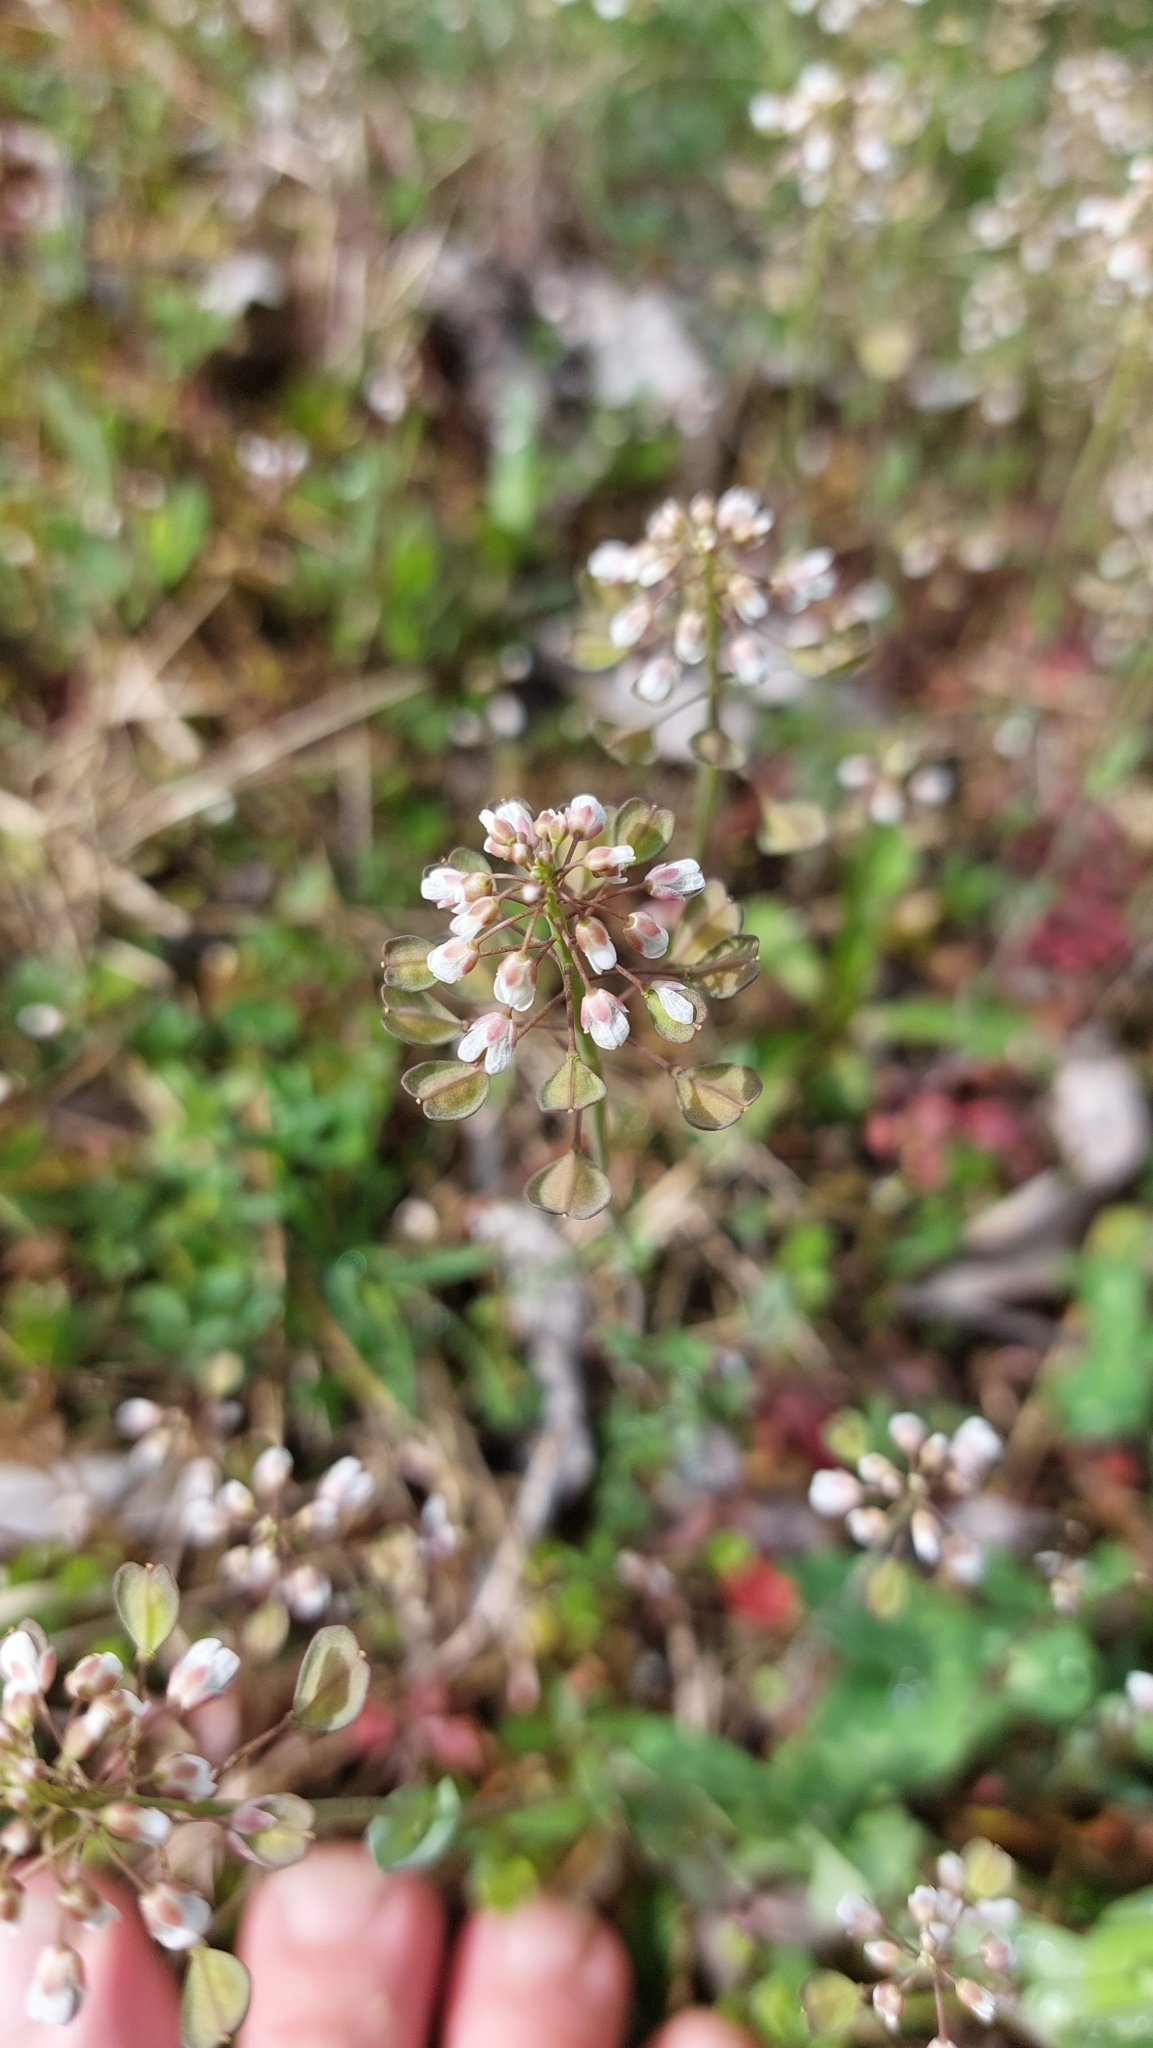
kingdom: Plantae
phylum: Tracheophyta
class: Magnoliopsida
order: Brassicales
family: Brassicaceae
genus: Noccaea
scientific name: Noccaea perfoliata
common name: Perfoliate pennycress
